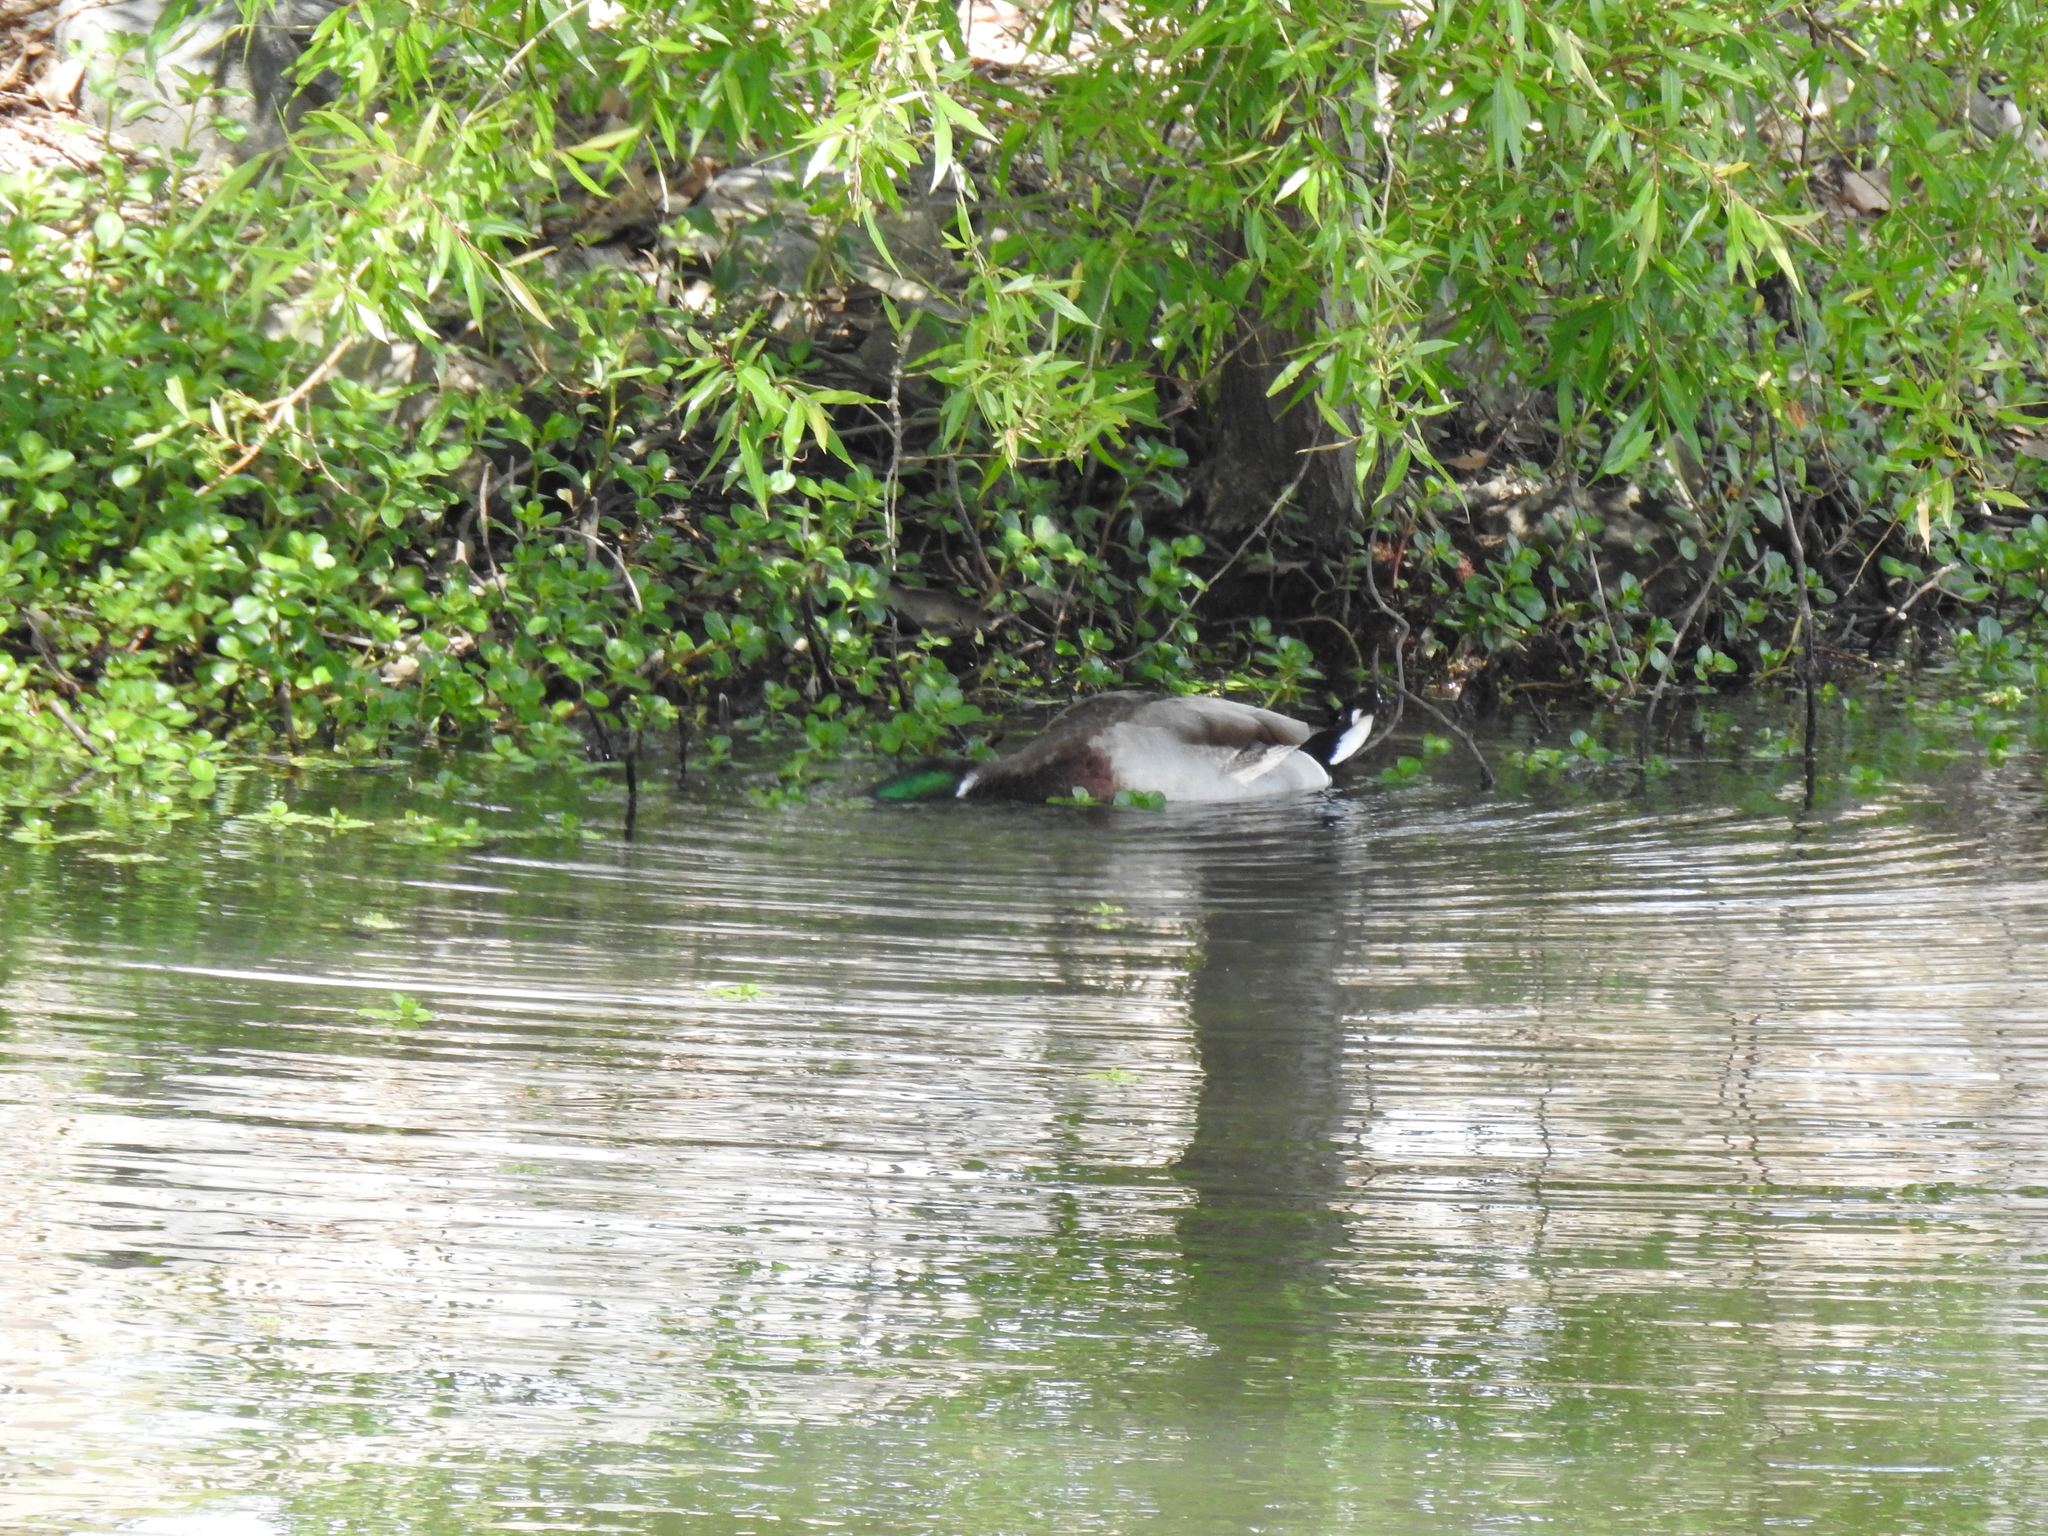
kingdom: Animalia
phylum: Chordata
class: Aves
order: Anseriformes
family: Anatidae
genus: Anas
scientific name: Anas platyrhynchos
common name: Mallard
